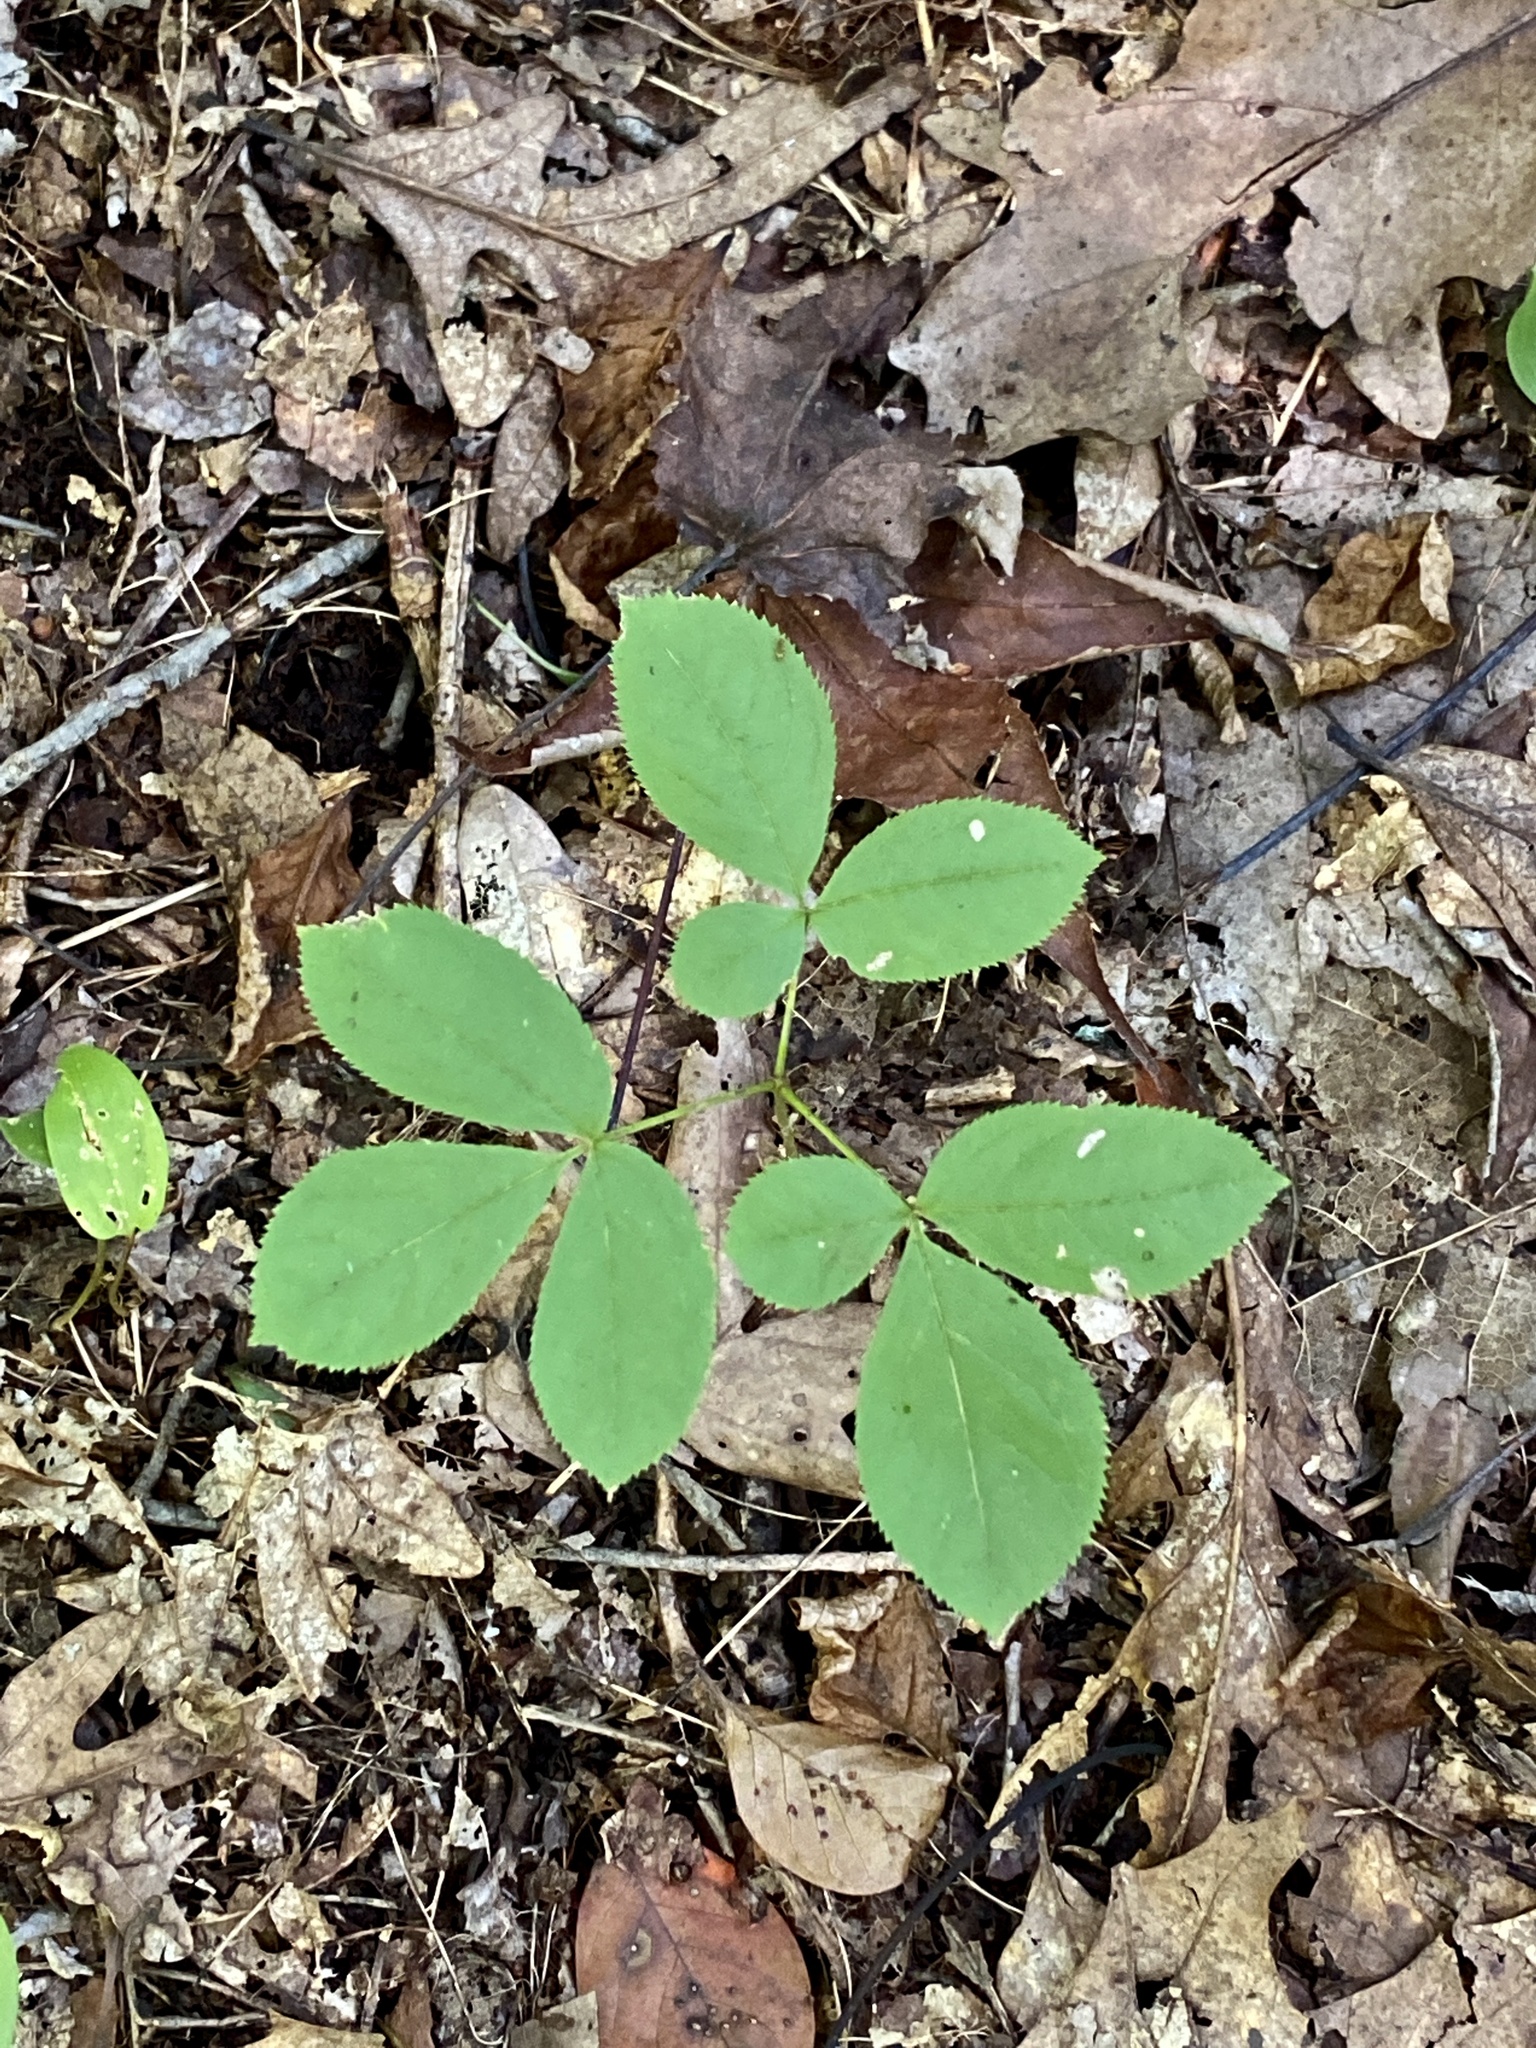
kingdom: Plantae
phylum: Tracheophyta
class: Magnoliopsida
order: Apiales
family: Araliaceae
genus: Aralia
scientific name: Aralia nudicaulis
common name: Wild sarsaparilla
